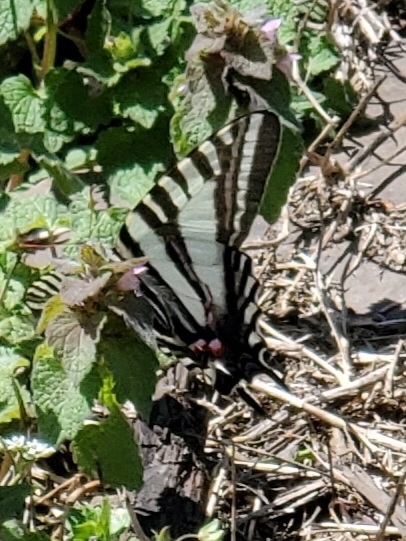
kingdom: Animalia
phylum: Arthropoda
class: Insecta
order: Lepidoptera
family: Papilionidae
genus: Protographium
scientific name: Protographium marcellus
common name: Zebra swallowtail
